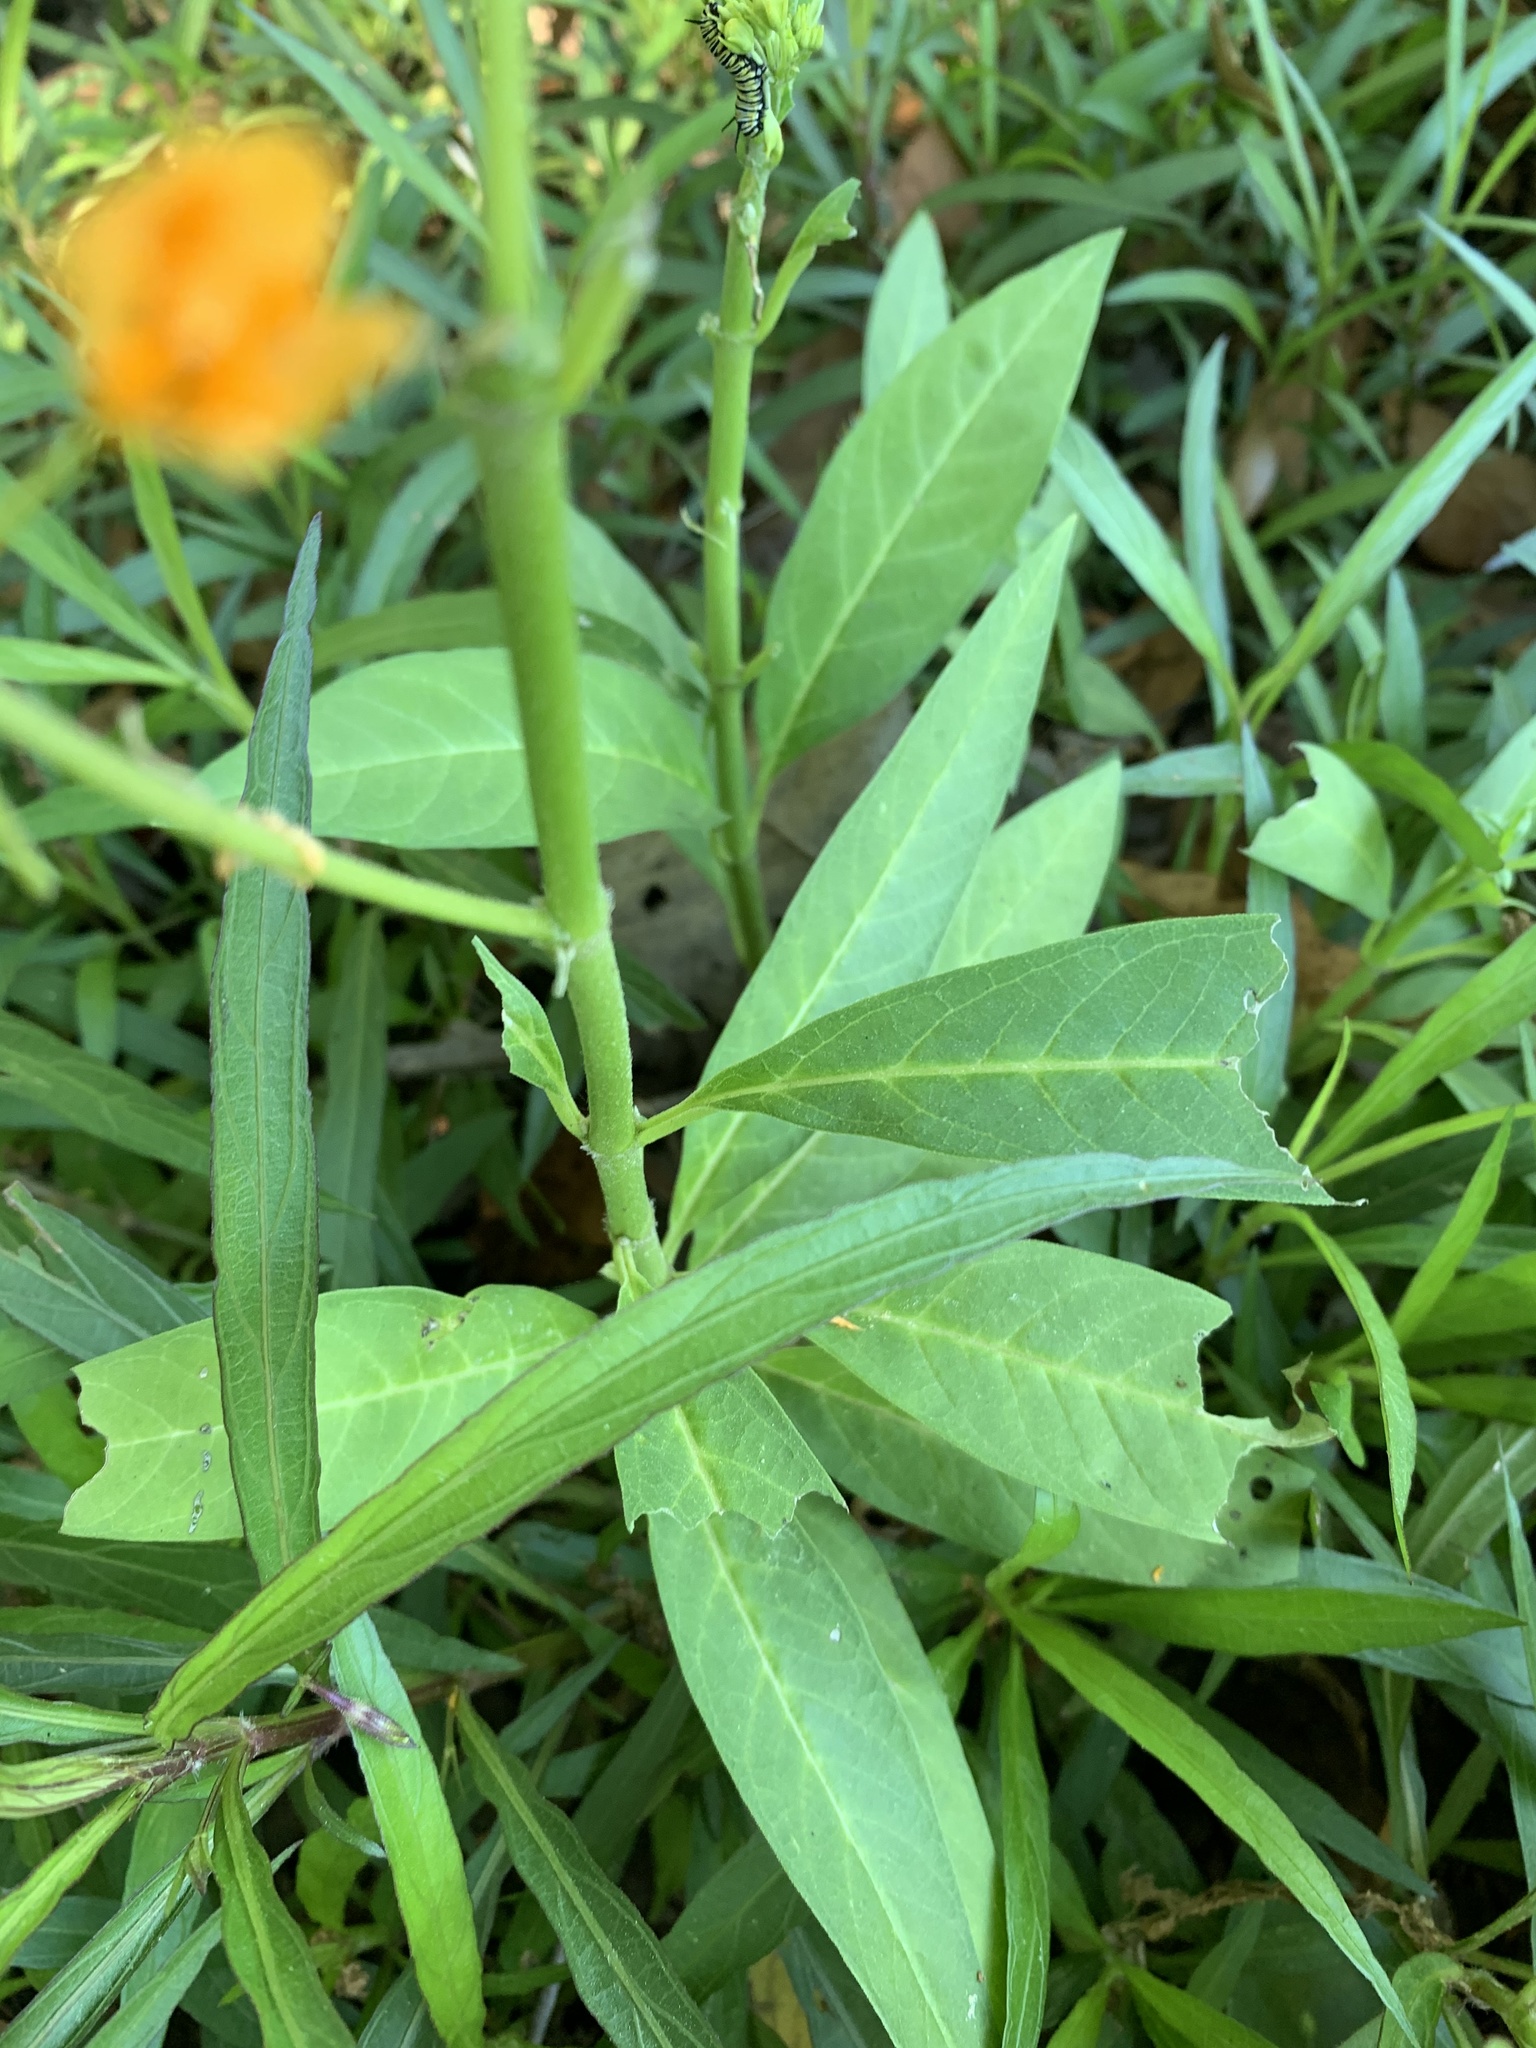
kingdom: Plantae
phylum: Tracheophyta
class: Magnoliopsida
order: Gentianales
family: Apocynaceae
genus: Asclepias
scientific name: Asclepias curassavica
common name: Bloodflower
